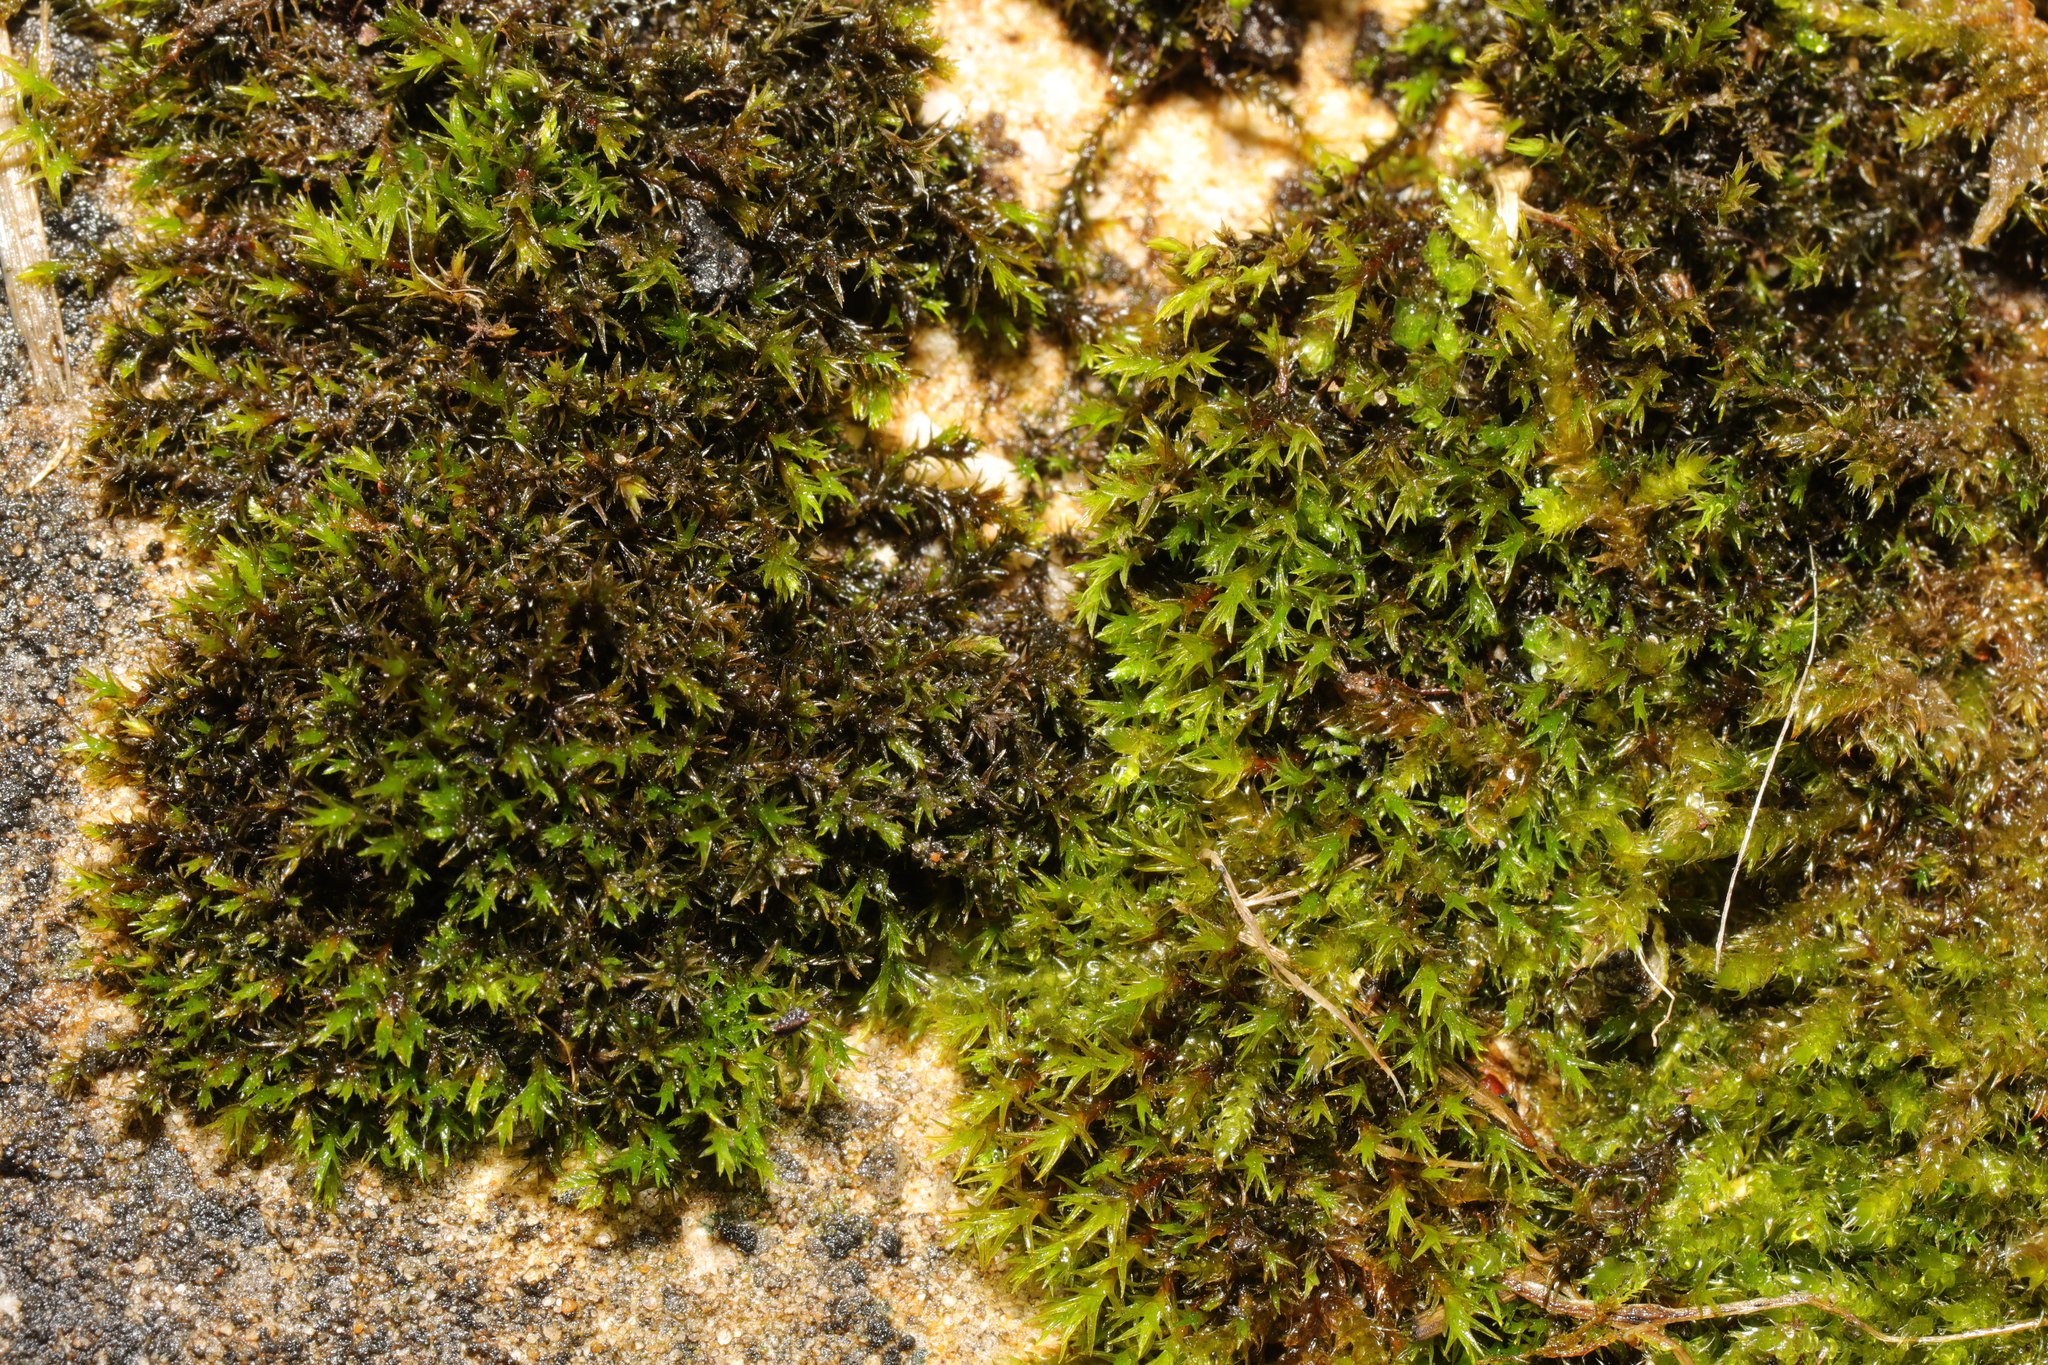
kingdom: Plantae
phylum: Bryophyta
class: Bryopsida
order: Orthotrichales
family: Orthotrichaceae
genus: Orthotrichum
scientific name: Orthotrichum anomalum
